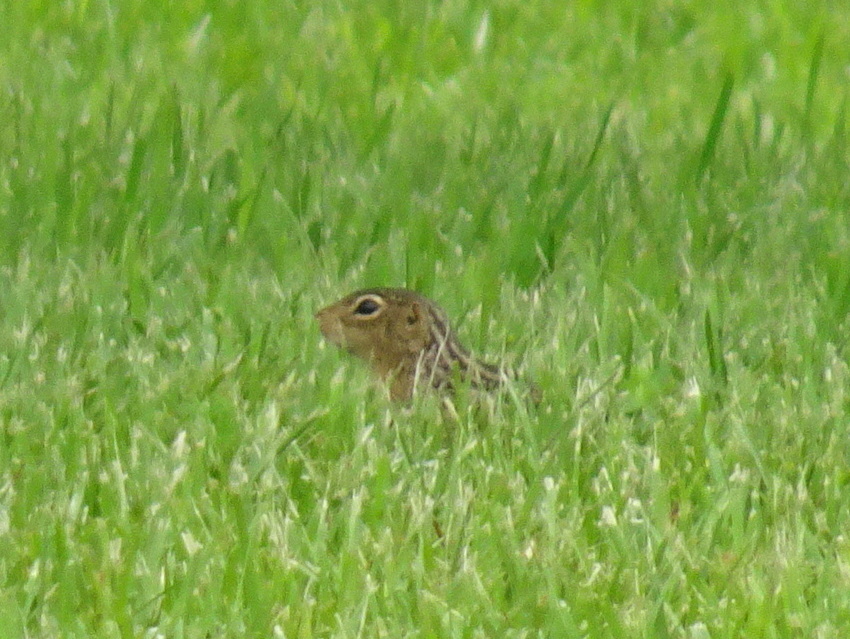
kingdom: Animalia
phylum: Chordata
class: Mammalia
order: Rodentia
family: Sciuridae
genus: Ictidomys
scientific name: Ictidomys tridecemlineatus
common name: Thirteen-lined ground squirrel
